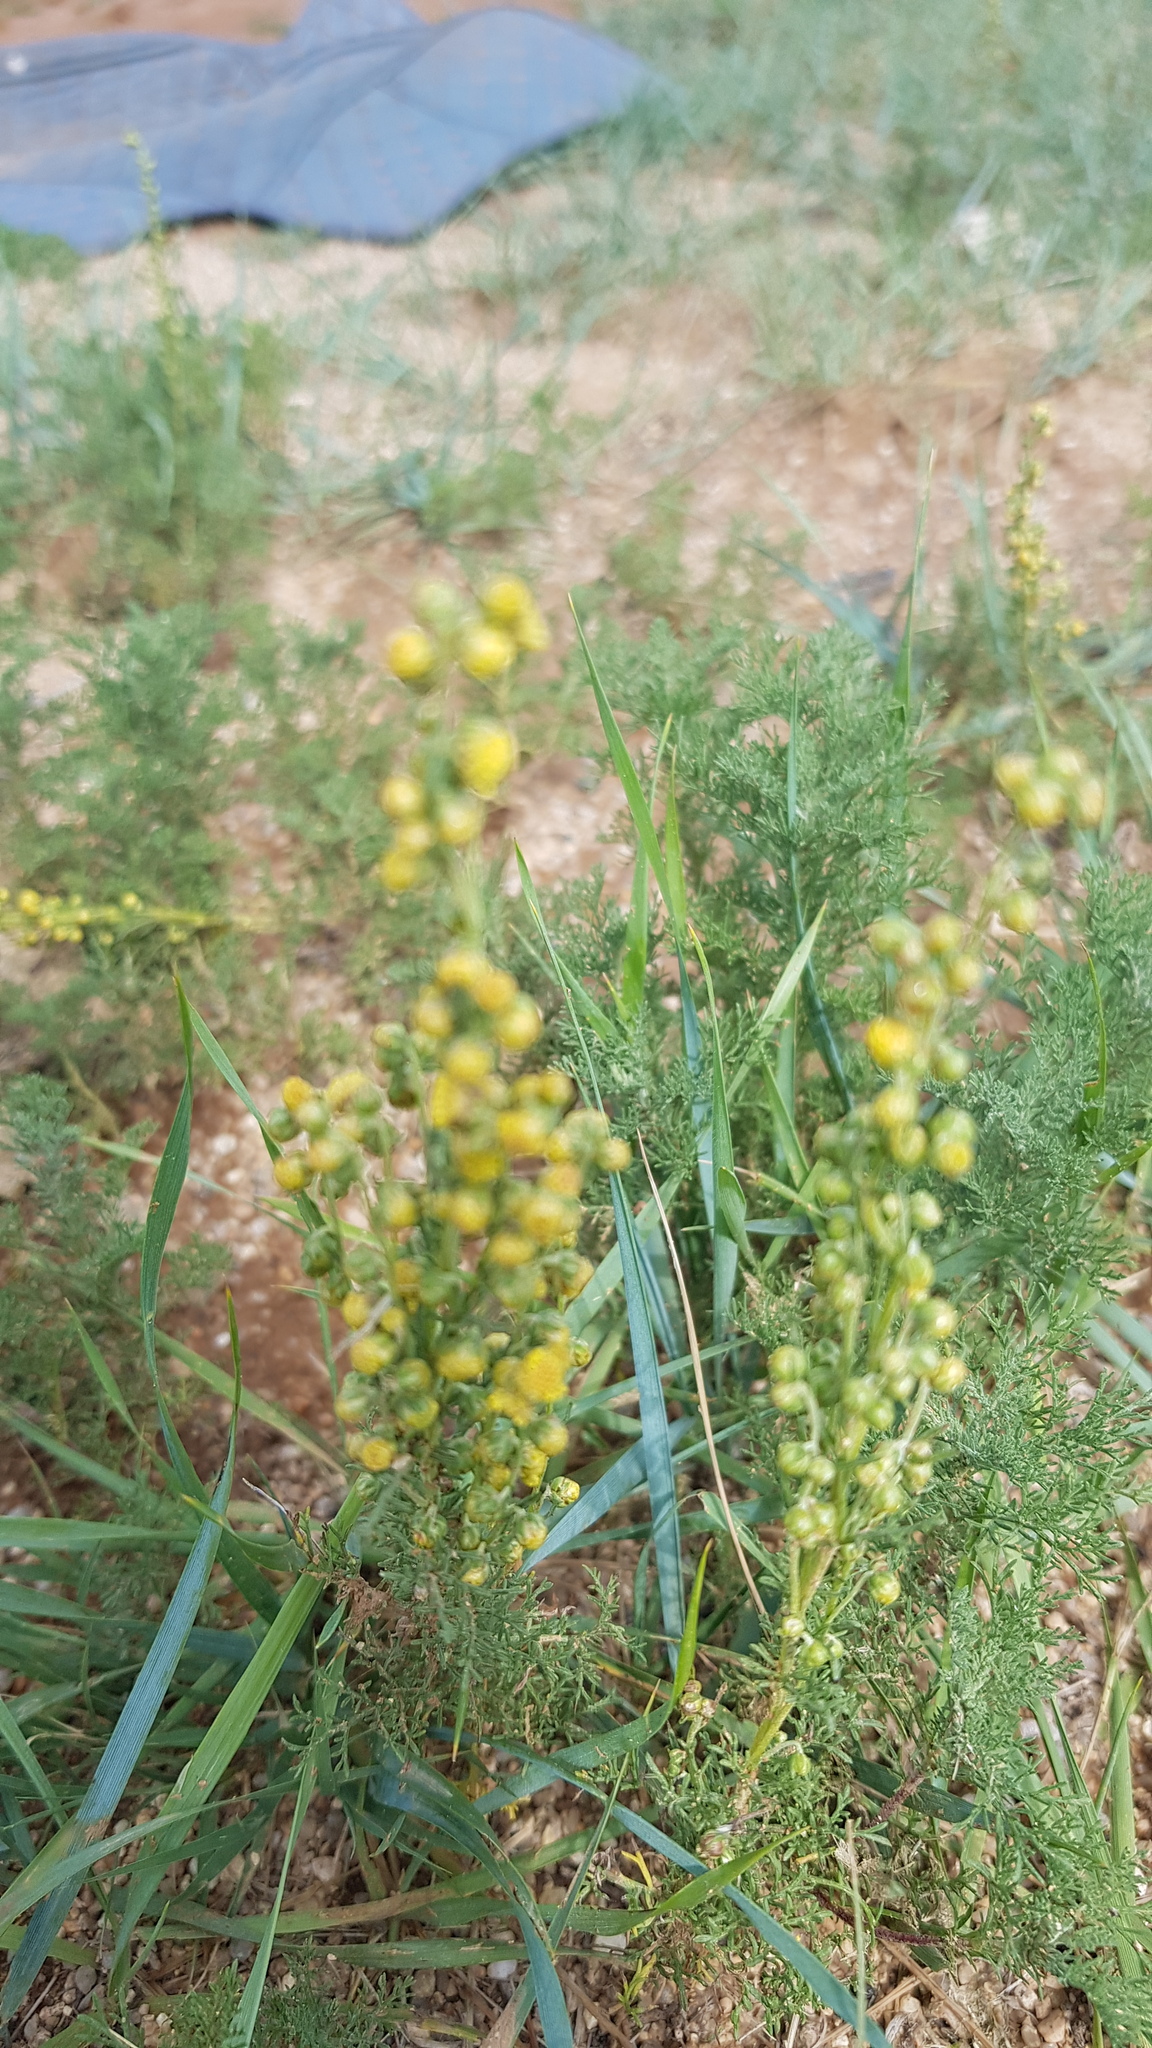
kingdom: Plantae
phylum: Tracheophyta
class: Magnoliopsida
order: Asterales
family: Asteraceae
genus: Artemisia
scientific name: Artemisia adamsii
